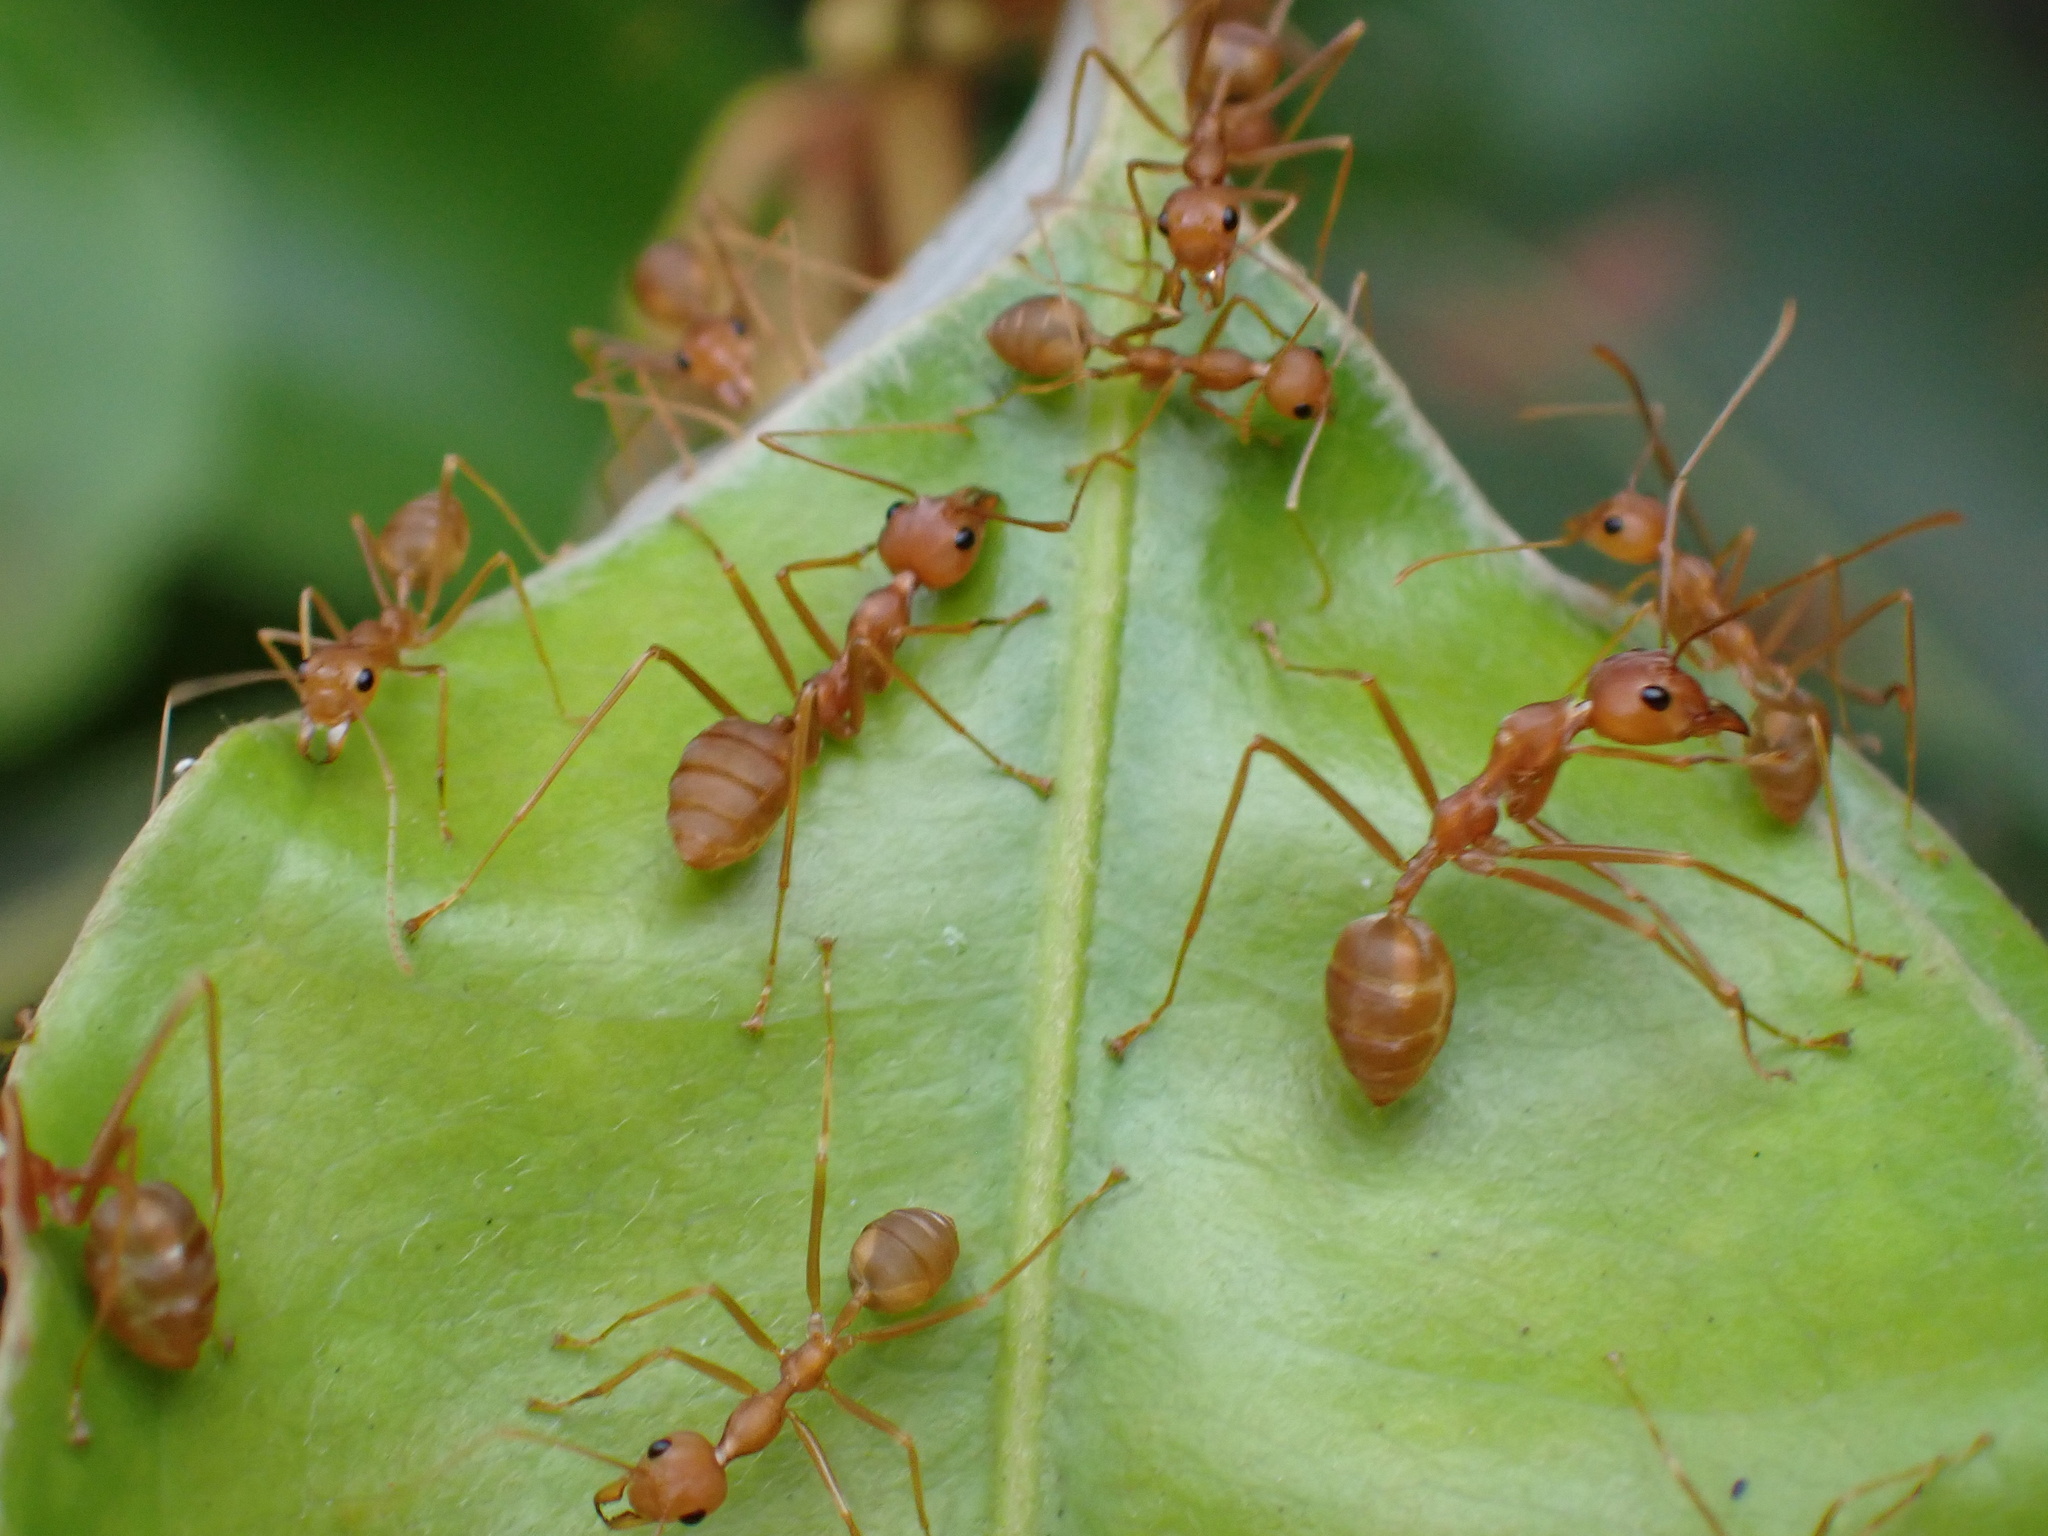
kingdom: Animalia
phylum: Arthropoda
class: Insecta
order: Hymenoptera
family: Formicidae
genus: Oecophylla
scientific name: Oecophylla smaragdina
